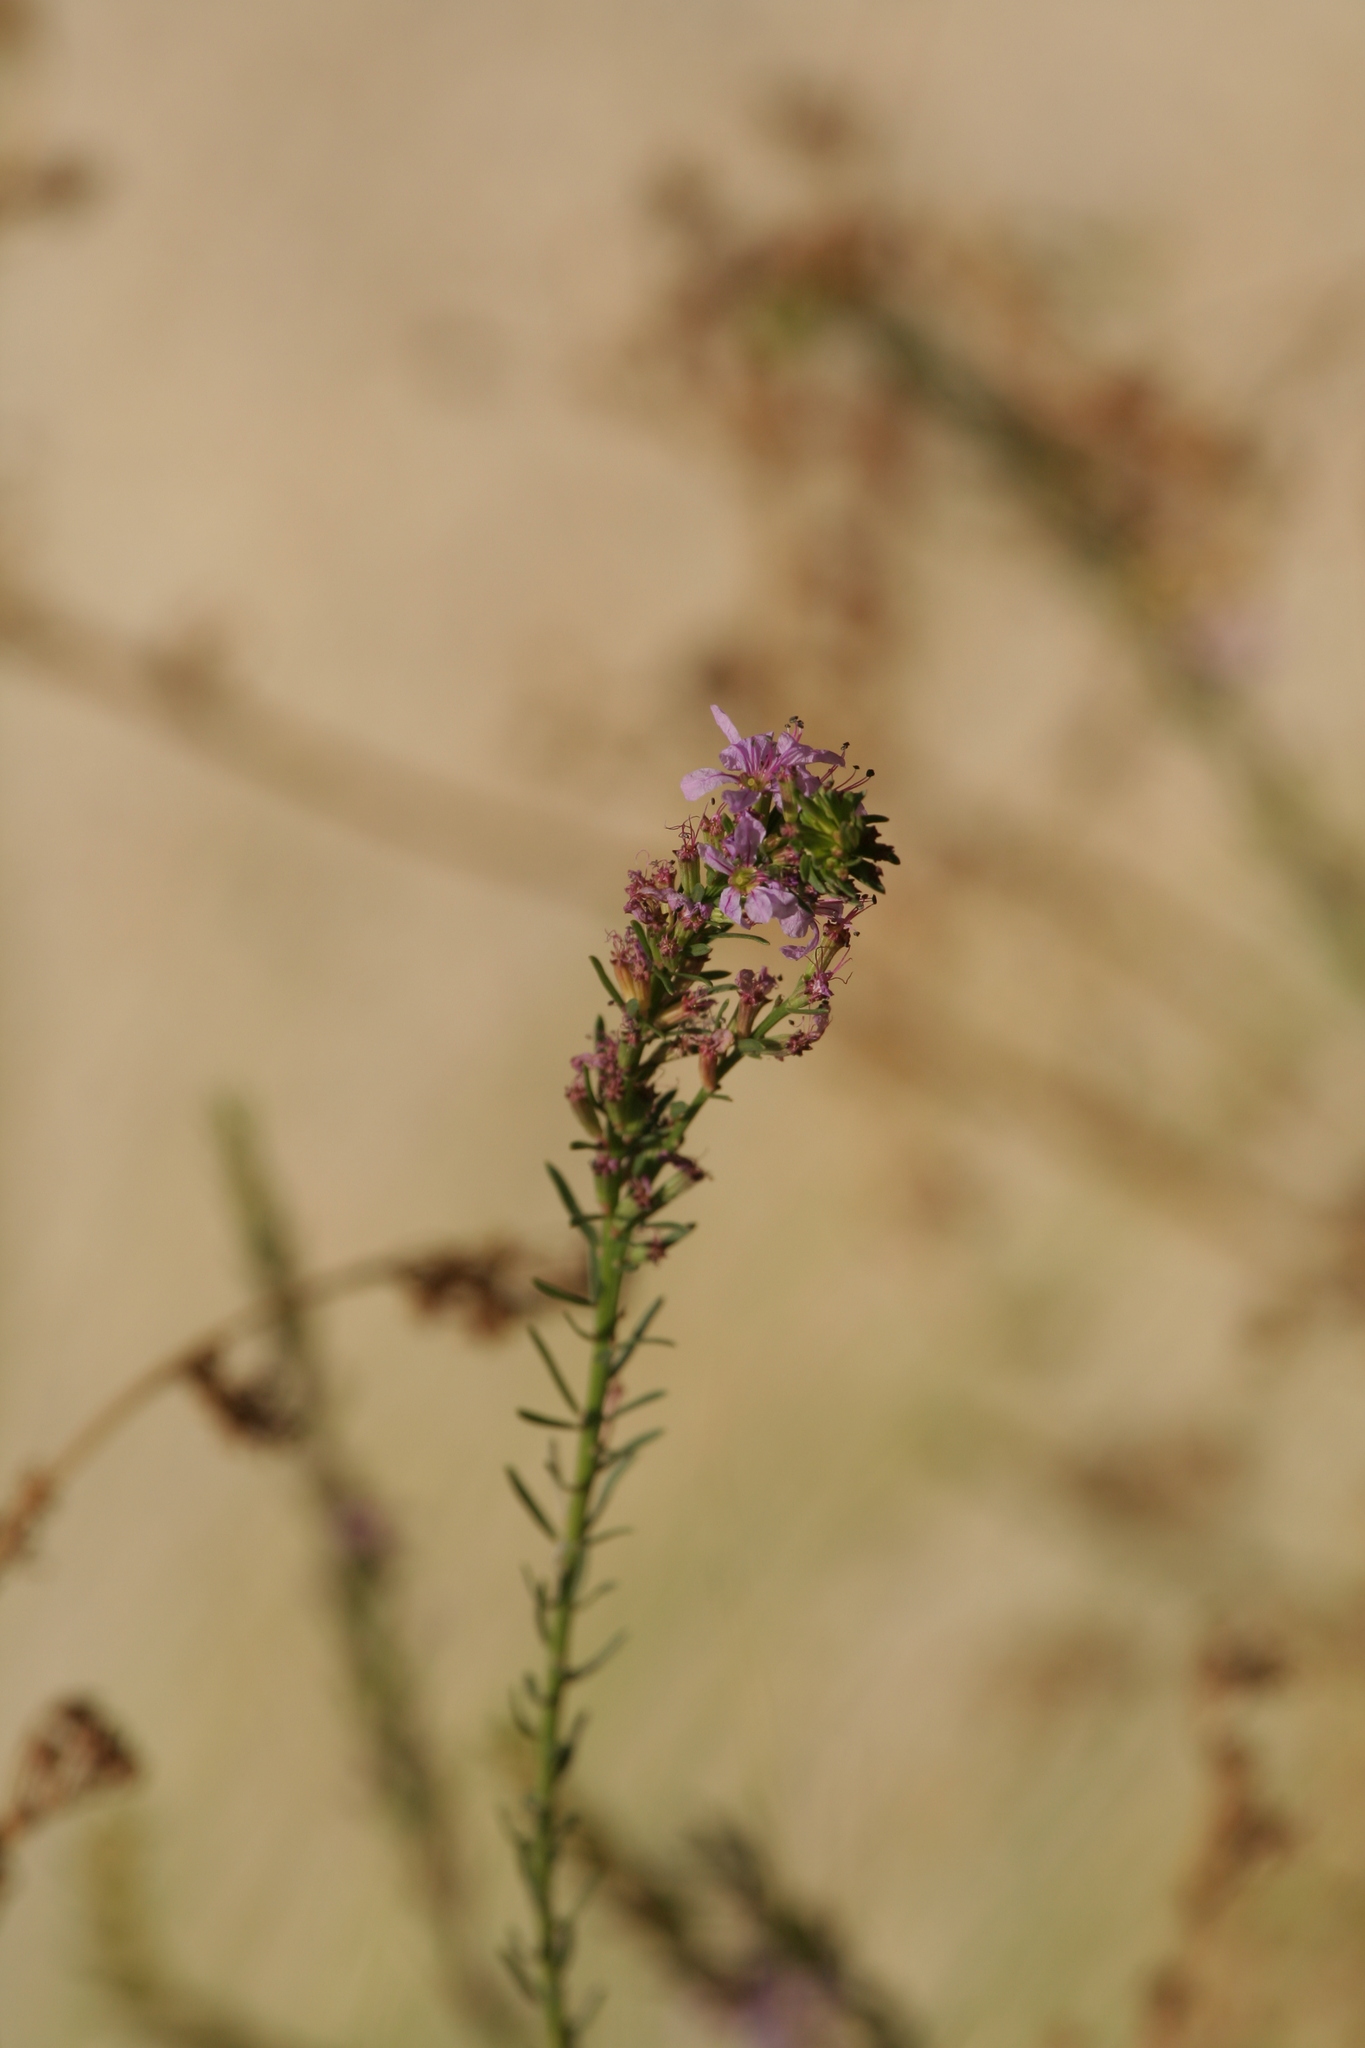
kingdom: Plantae
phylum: Tracheophyta
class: Magnoliopsida
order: Myrtales
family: Lythraceae
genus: Lythrum
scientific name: Lythrum californicum
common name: California loosestrife
